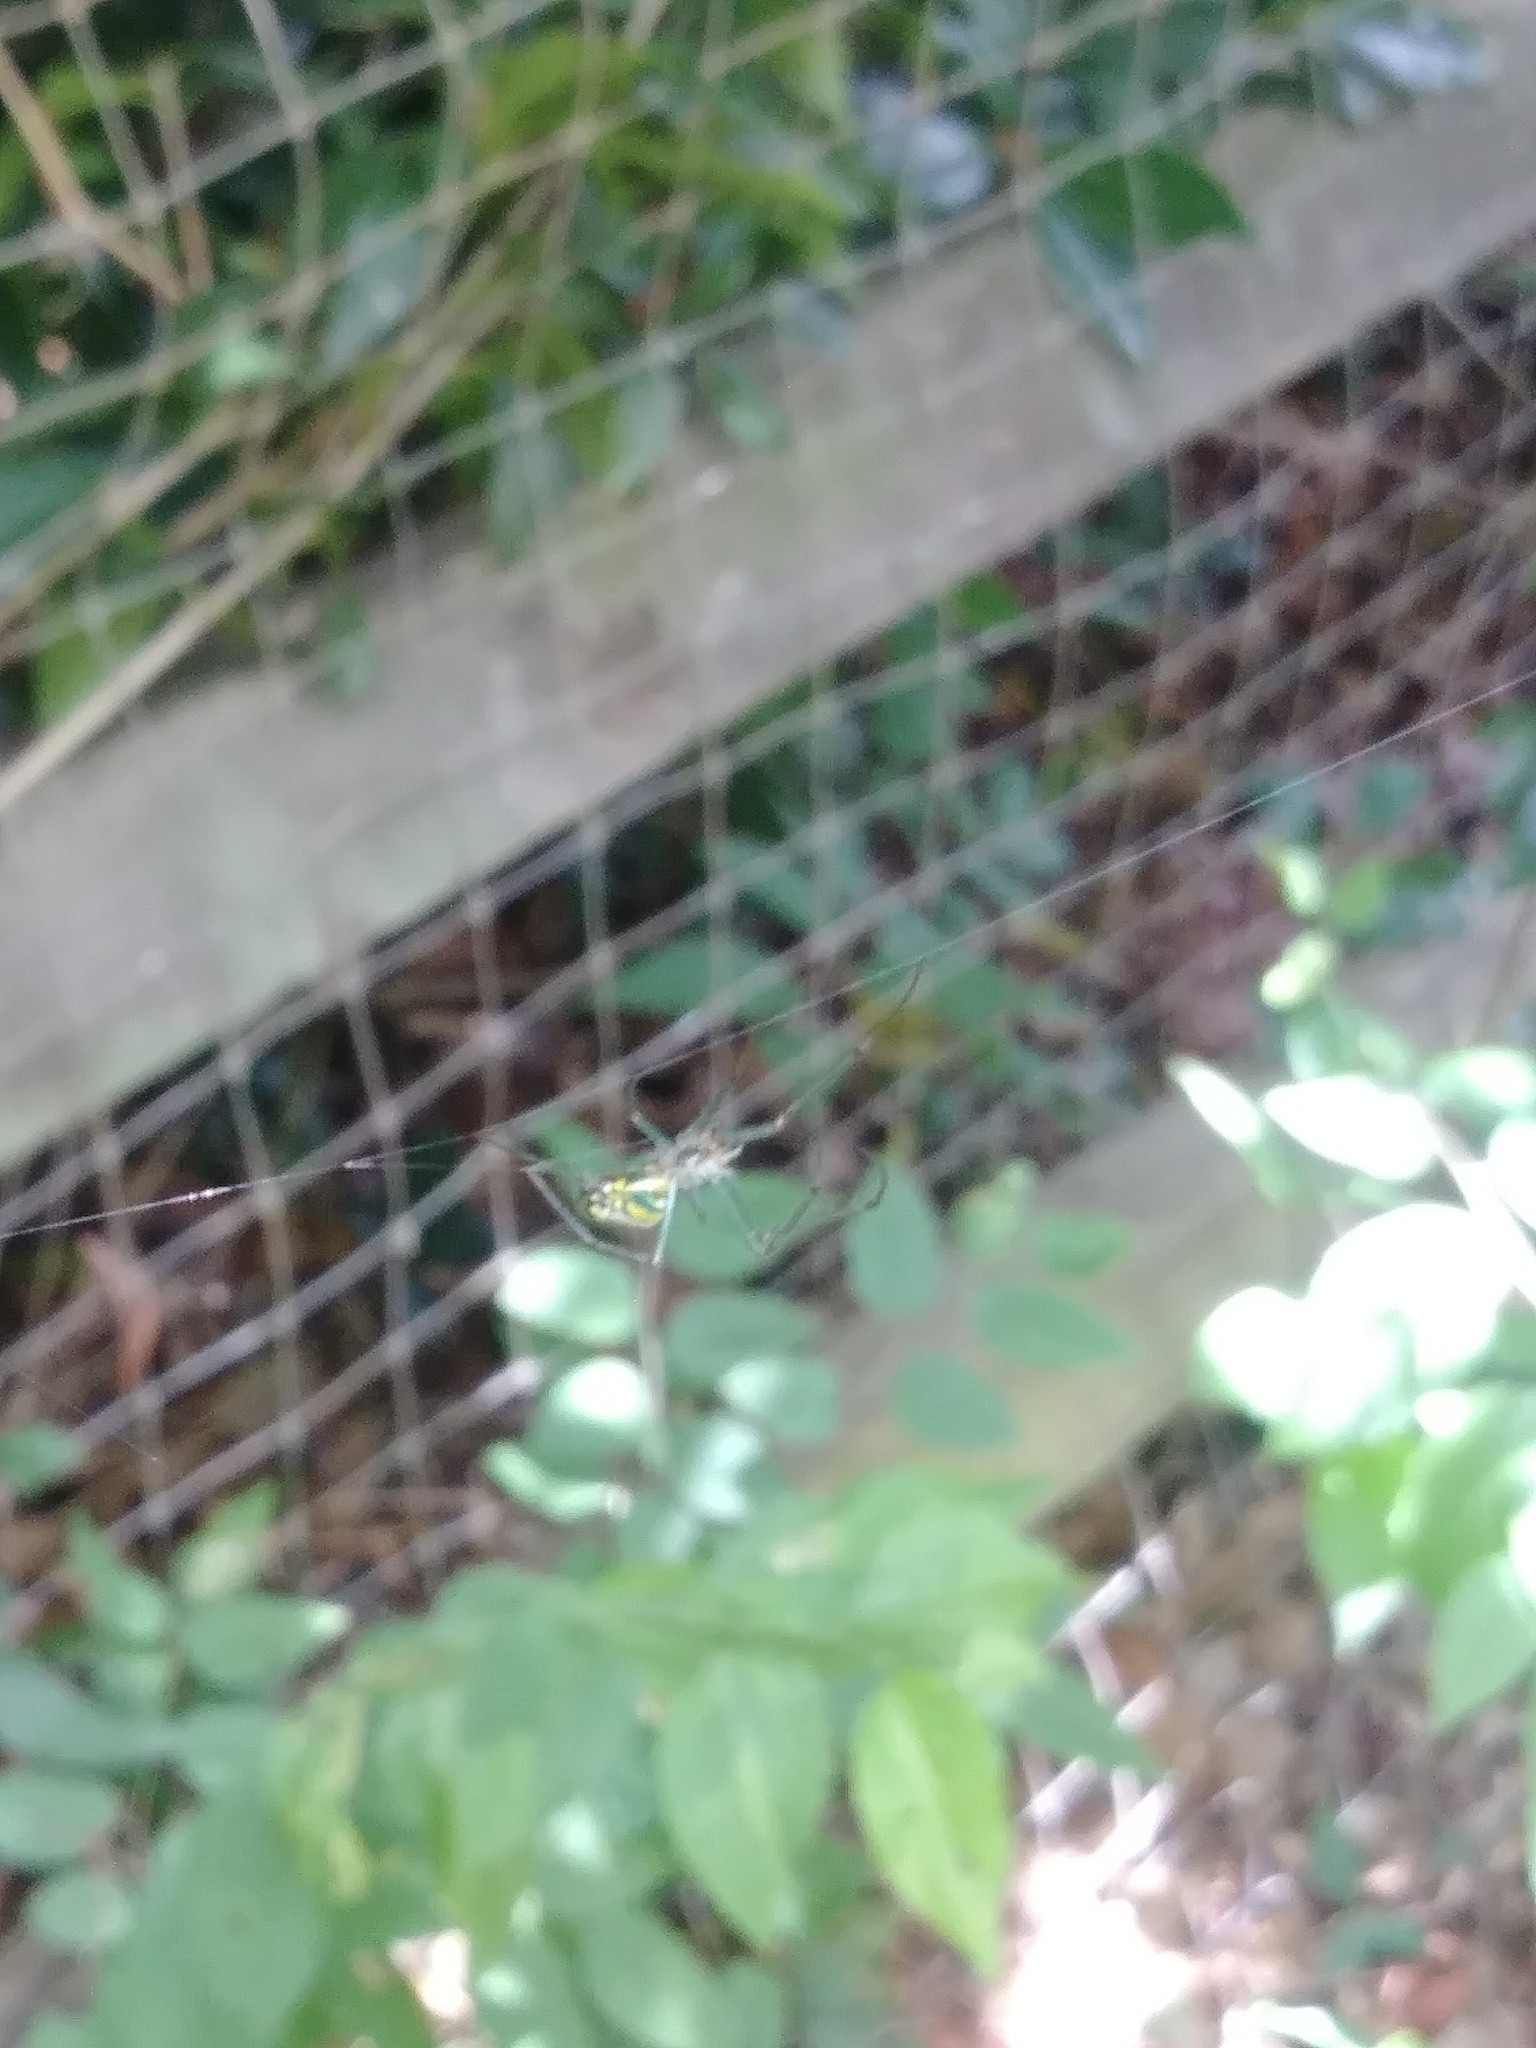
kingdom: Animalia
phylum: Arthropoda
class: Arachnida
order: Araneae
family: Tetragnathidae
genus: Leucauge
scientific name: Leucauge venusta
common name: Longjawed orb weavers
